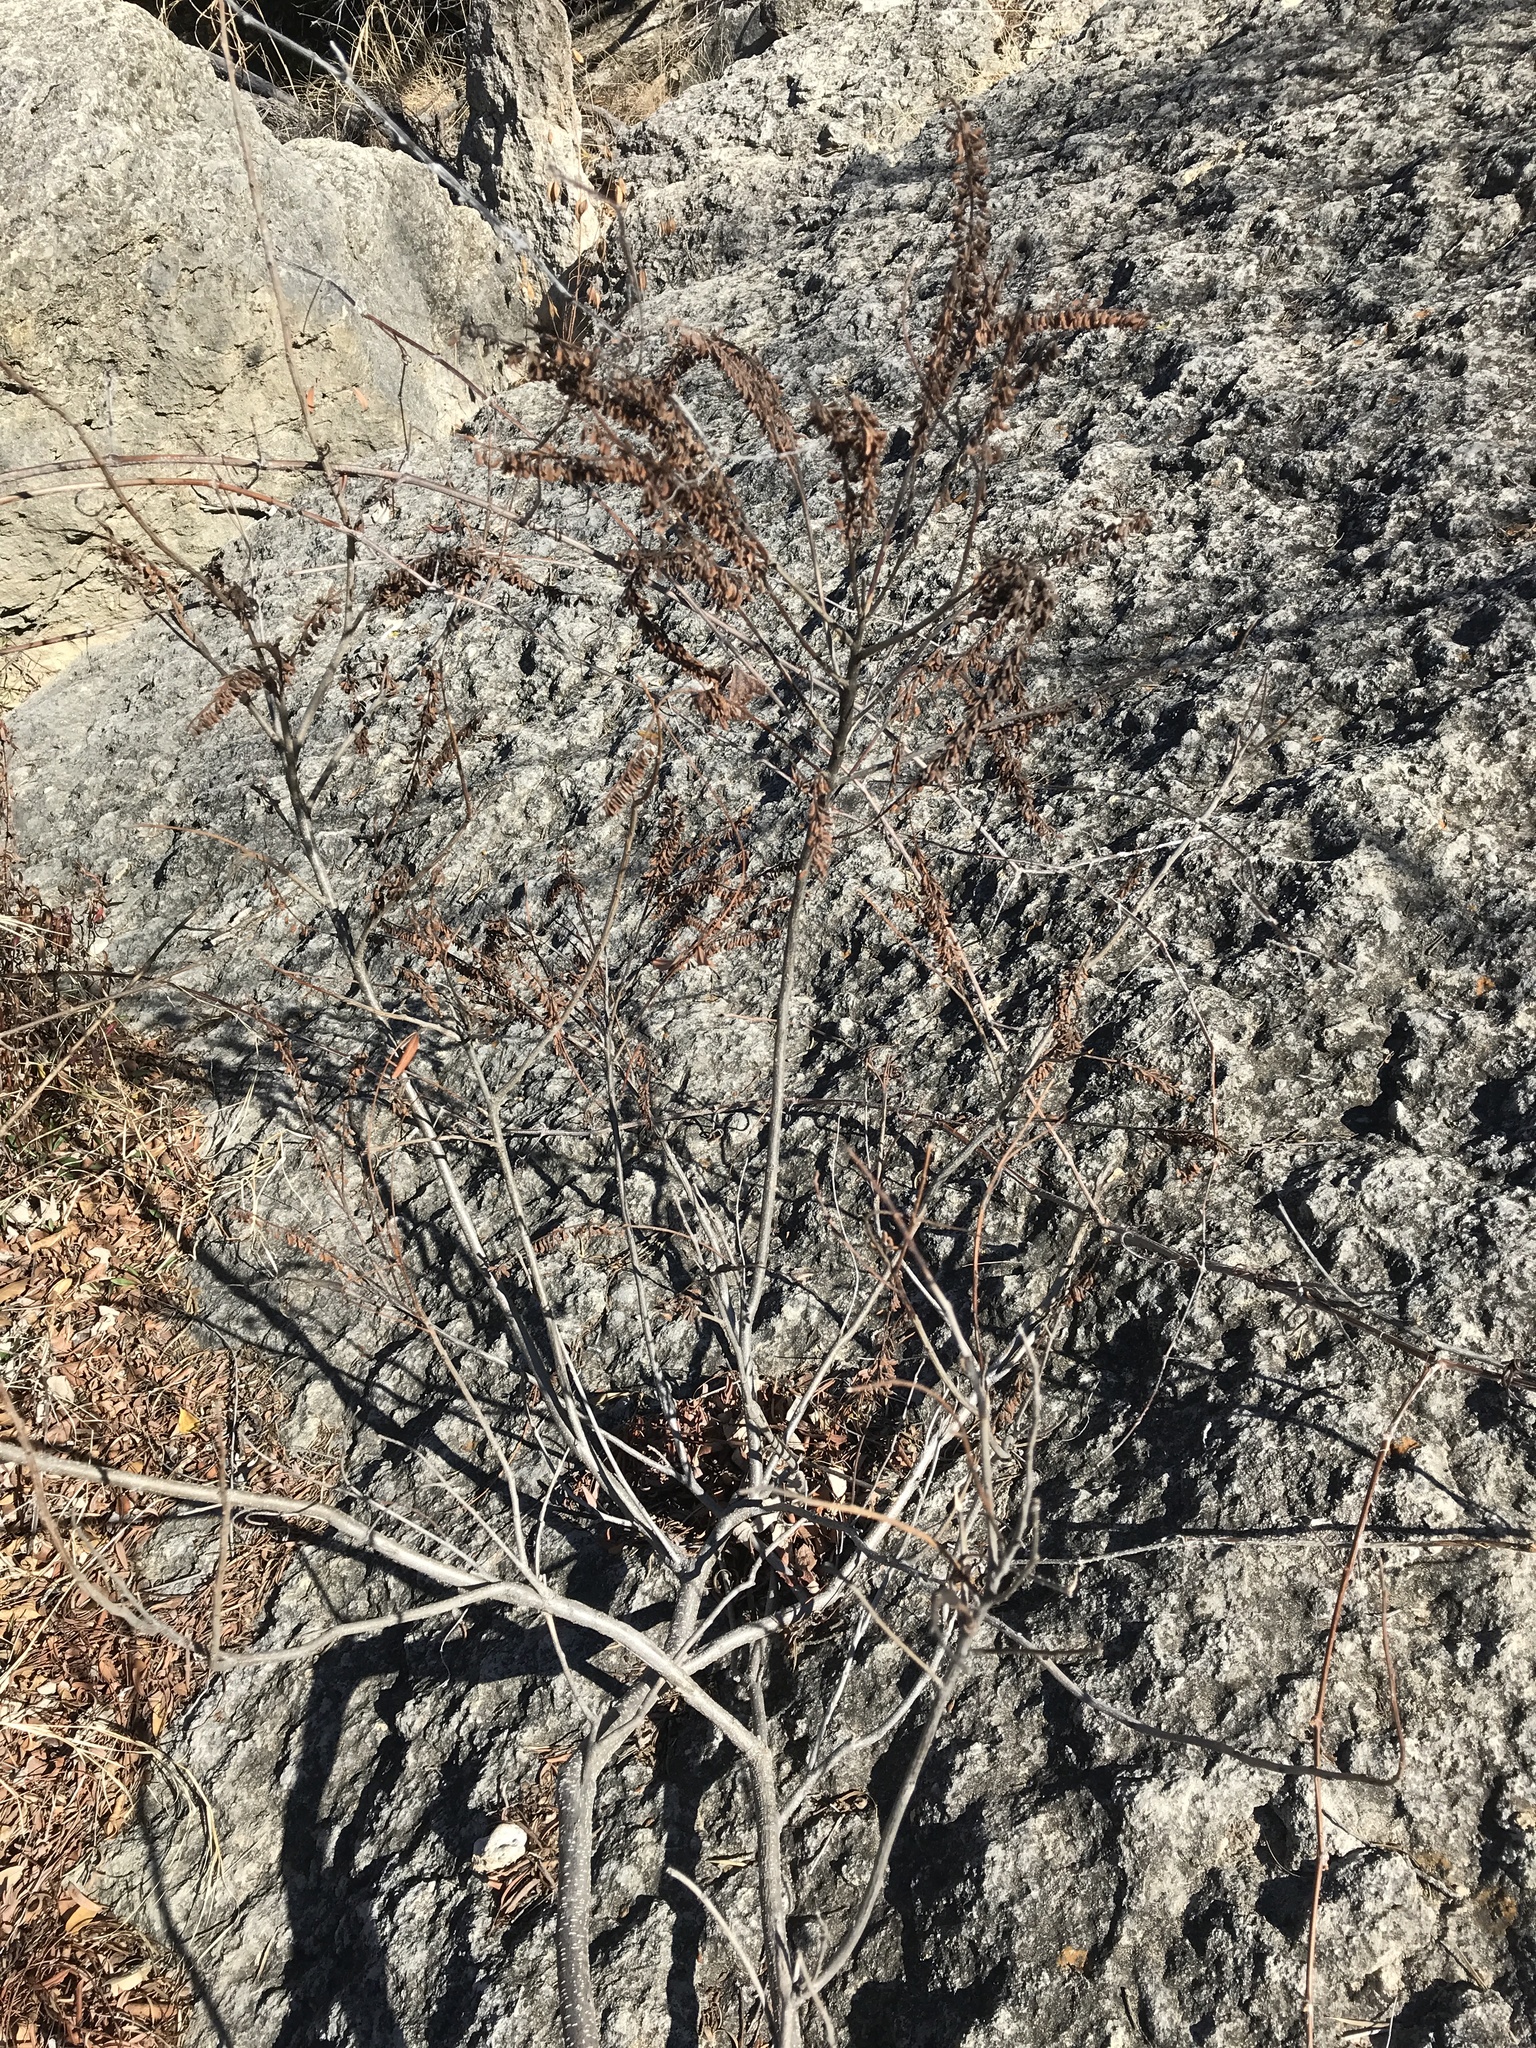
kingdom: Plantae
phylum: Tracheophyta
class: Magnoliopsida
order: Fabales
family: Fabaceae
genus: Amorpha
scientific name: Amorpha fruticosa
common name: False indigo
